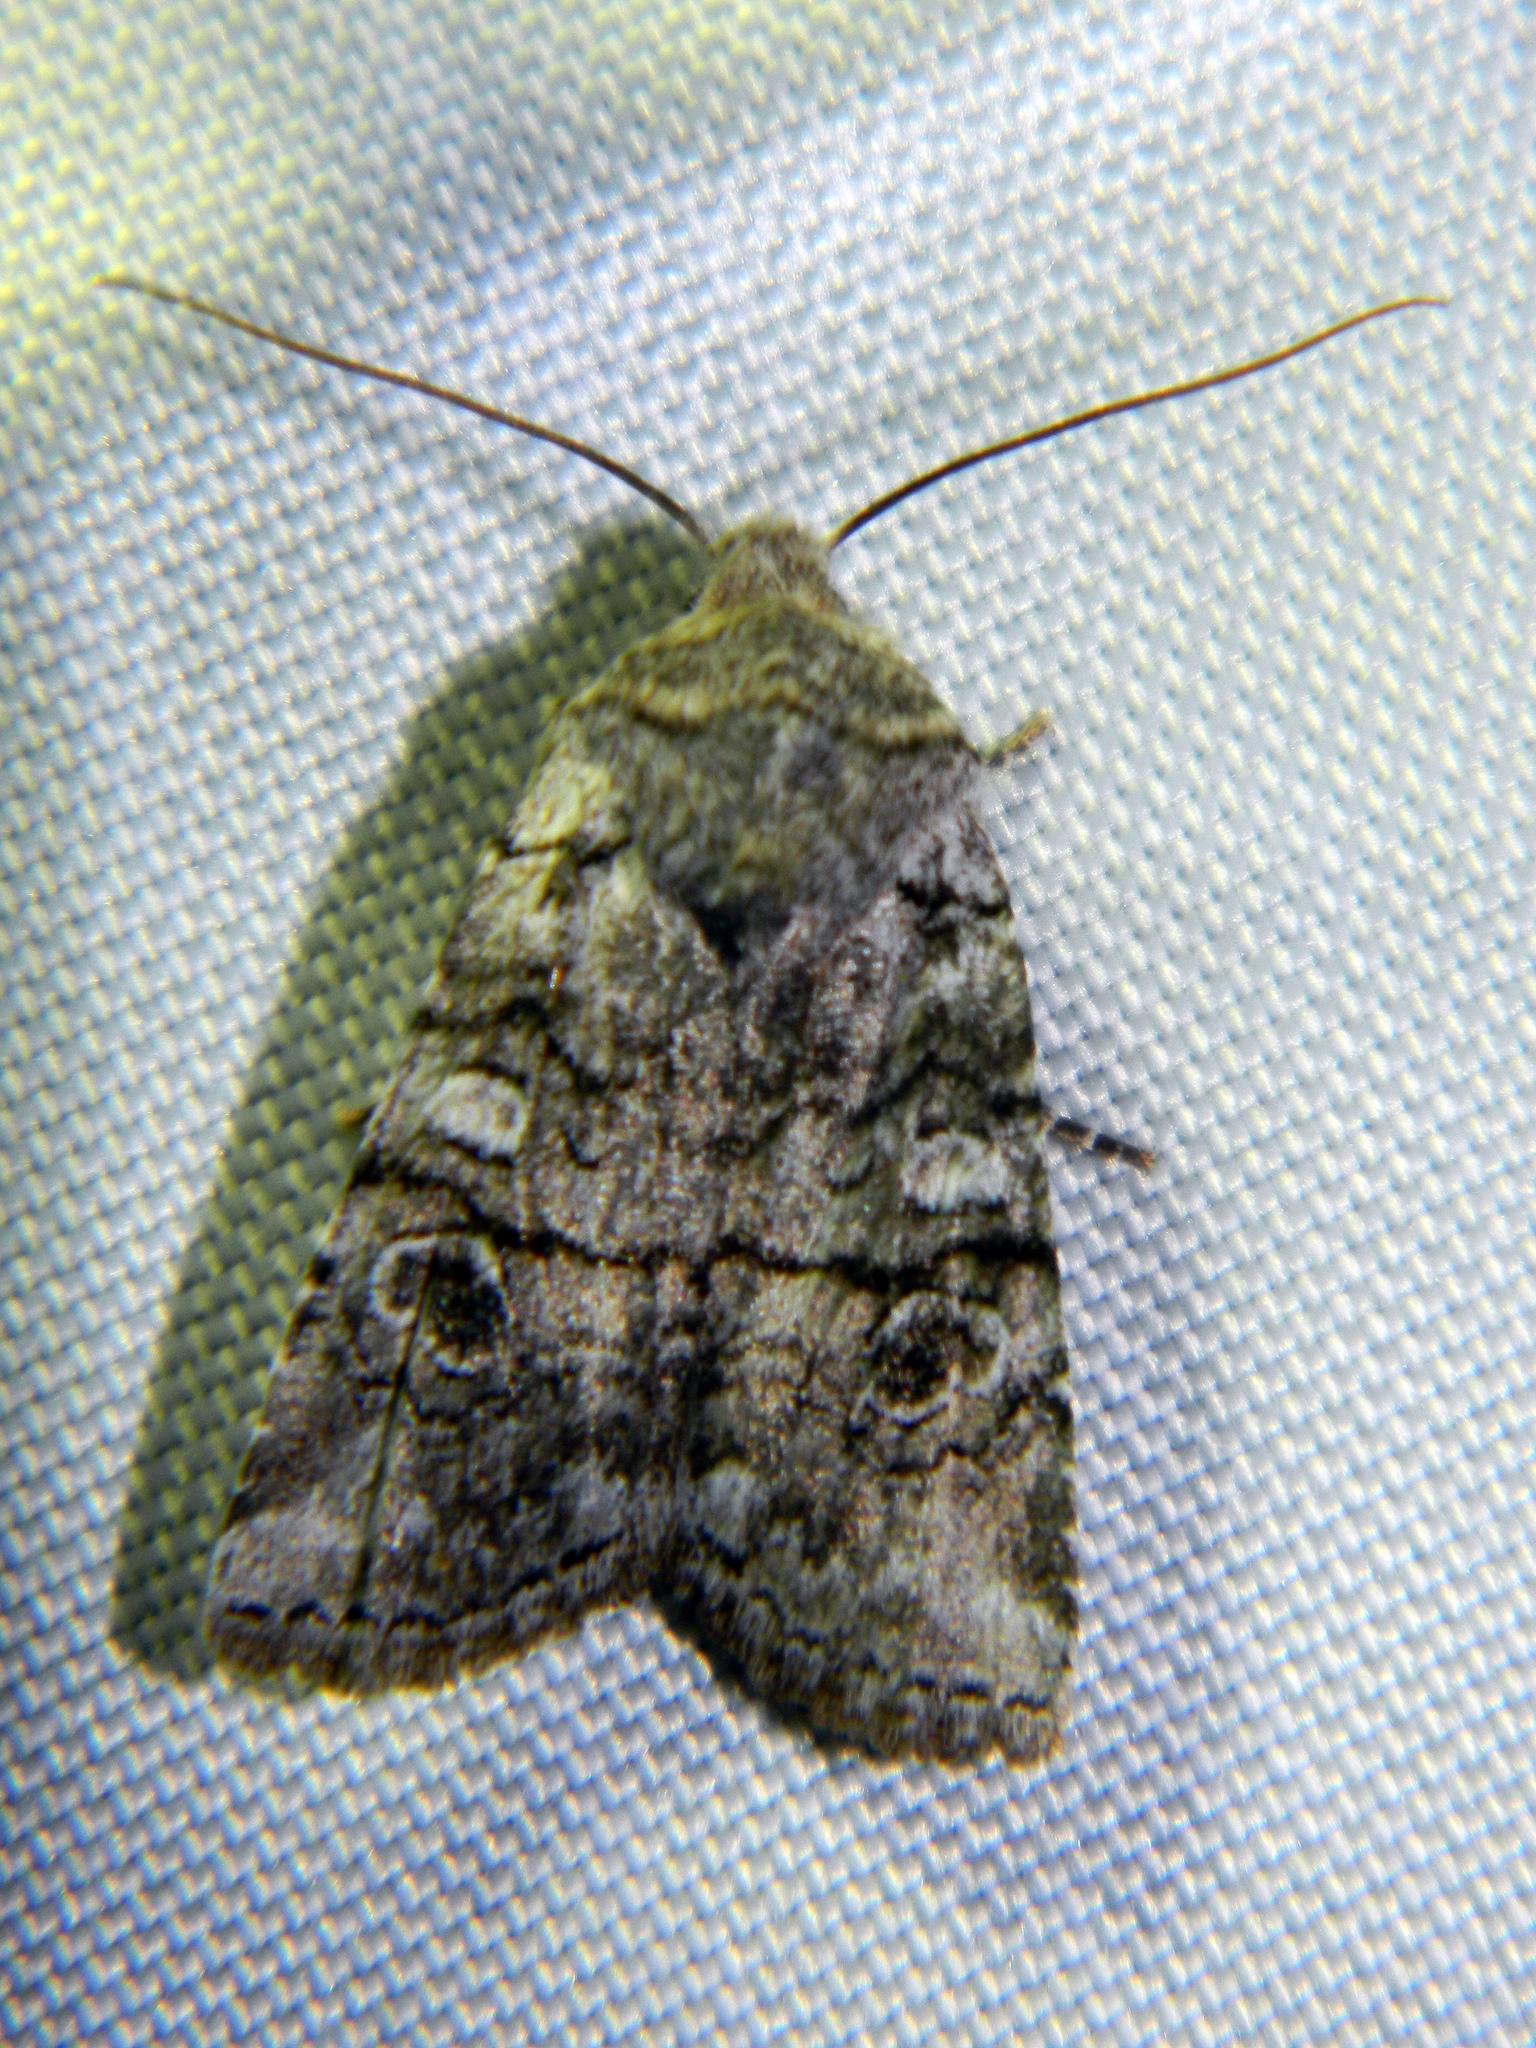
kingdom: Animalia
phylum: Arthropoda
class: Insecta
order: Lepidoptera
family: Noctuidae
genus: Litholomia
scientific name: Litholomia napaea
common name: False pinion moth
